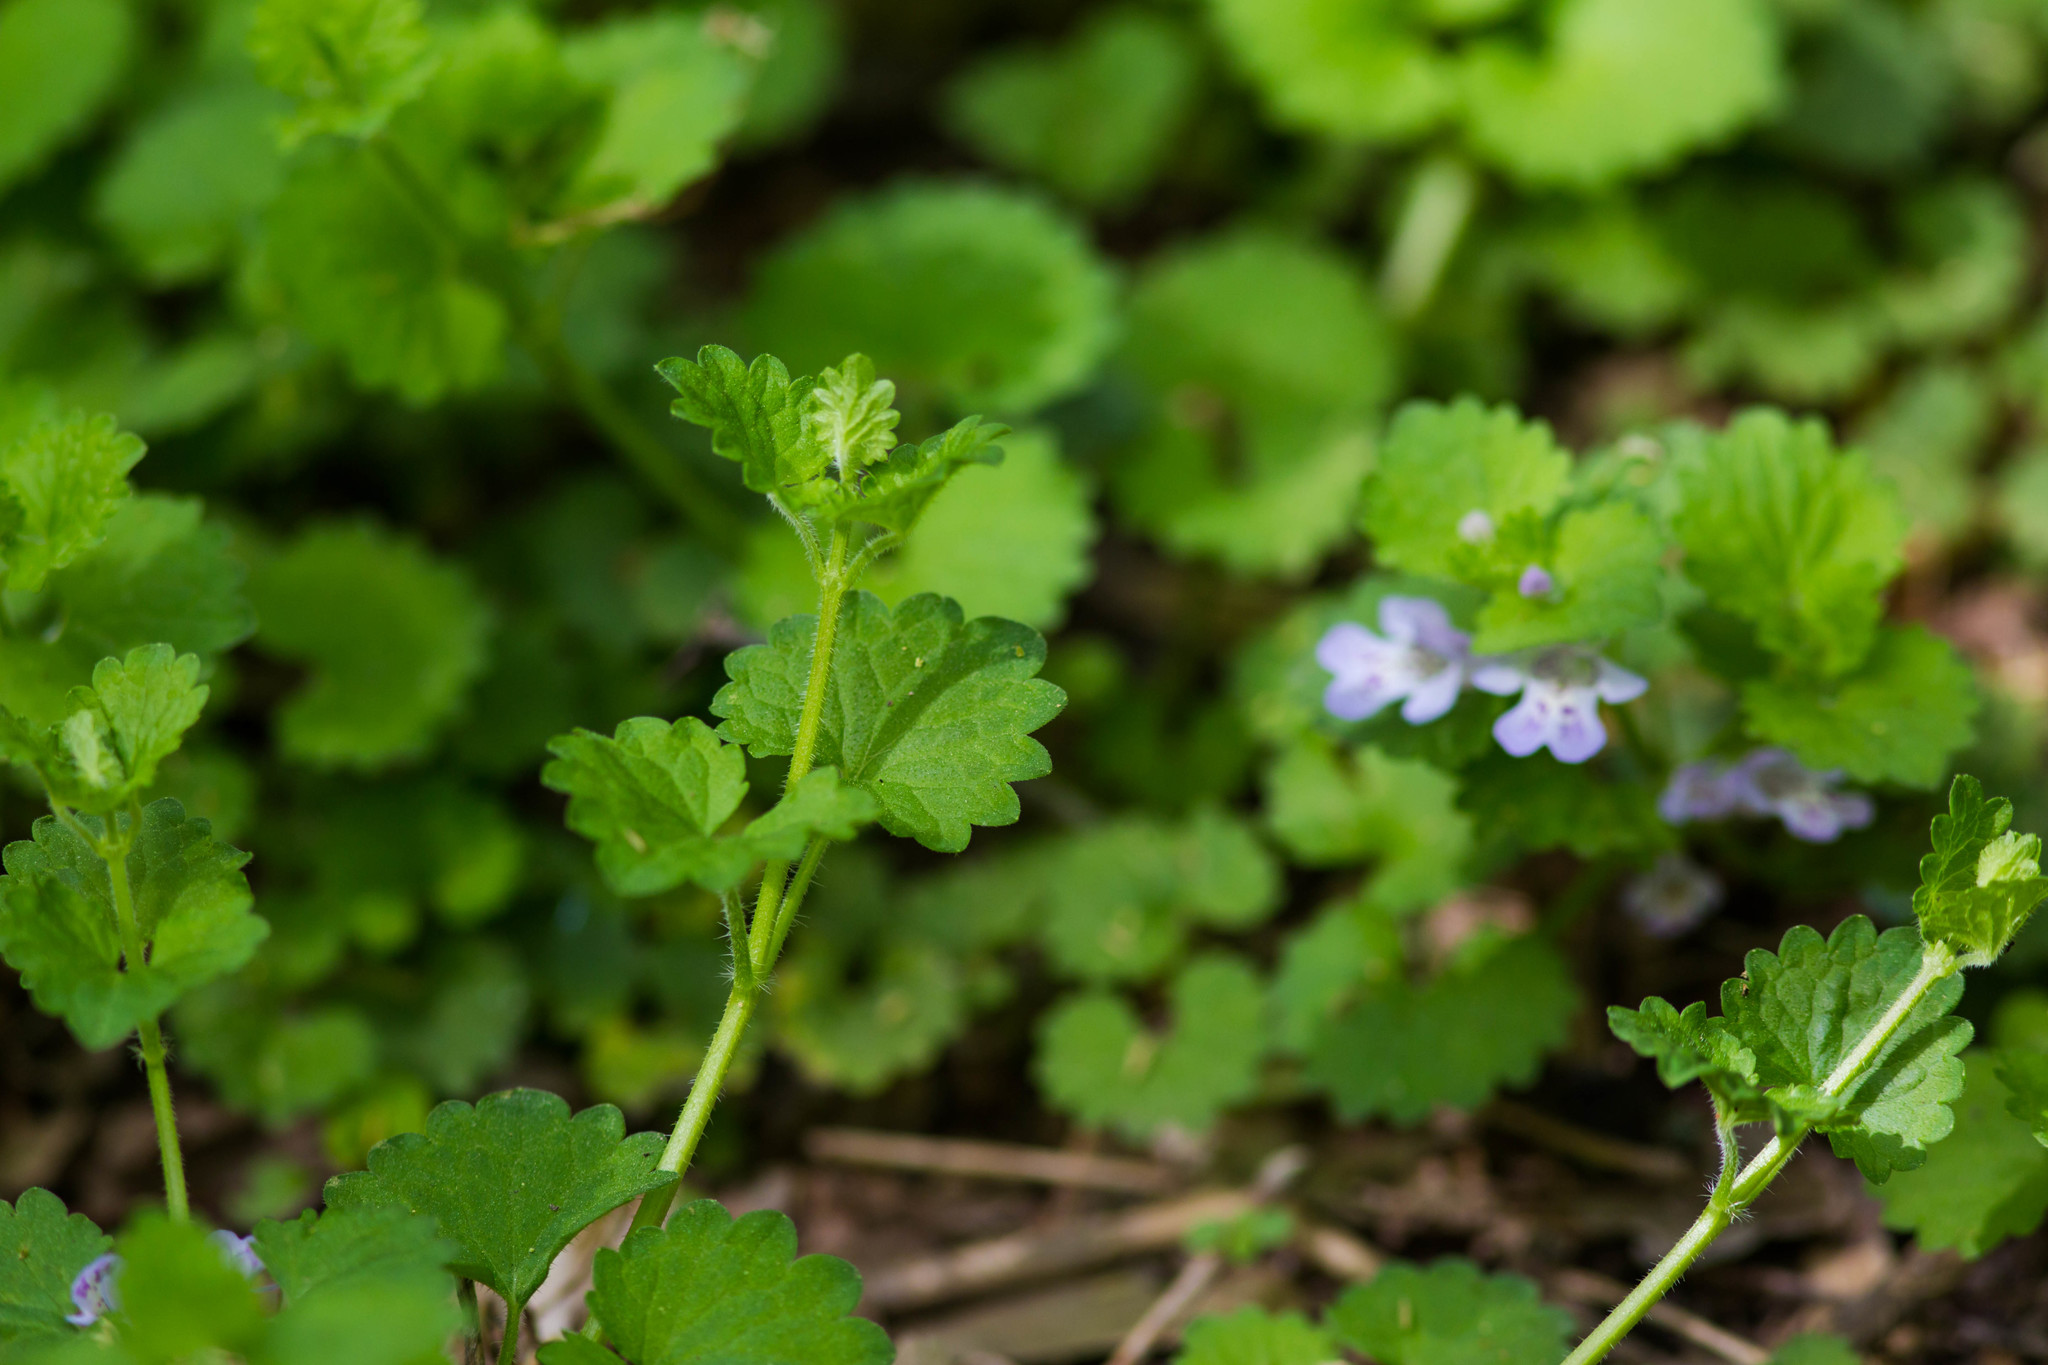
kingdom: Plantae
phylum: Tracheophyta
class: Magnoliopsida
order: Lamiales
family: Lamiaceae
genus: Glechoma
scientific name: Glechoma hederacea
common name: Ground ivy
